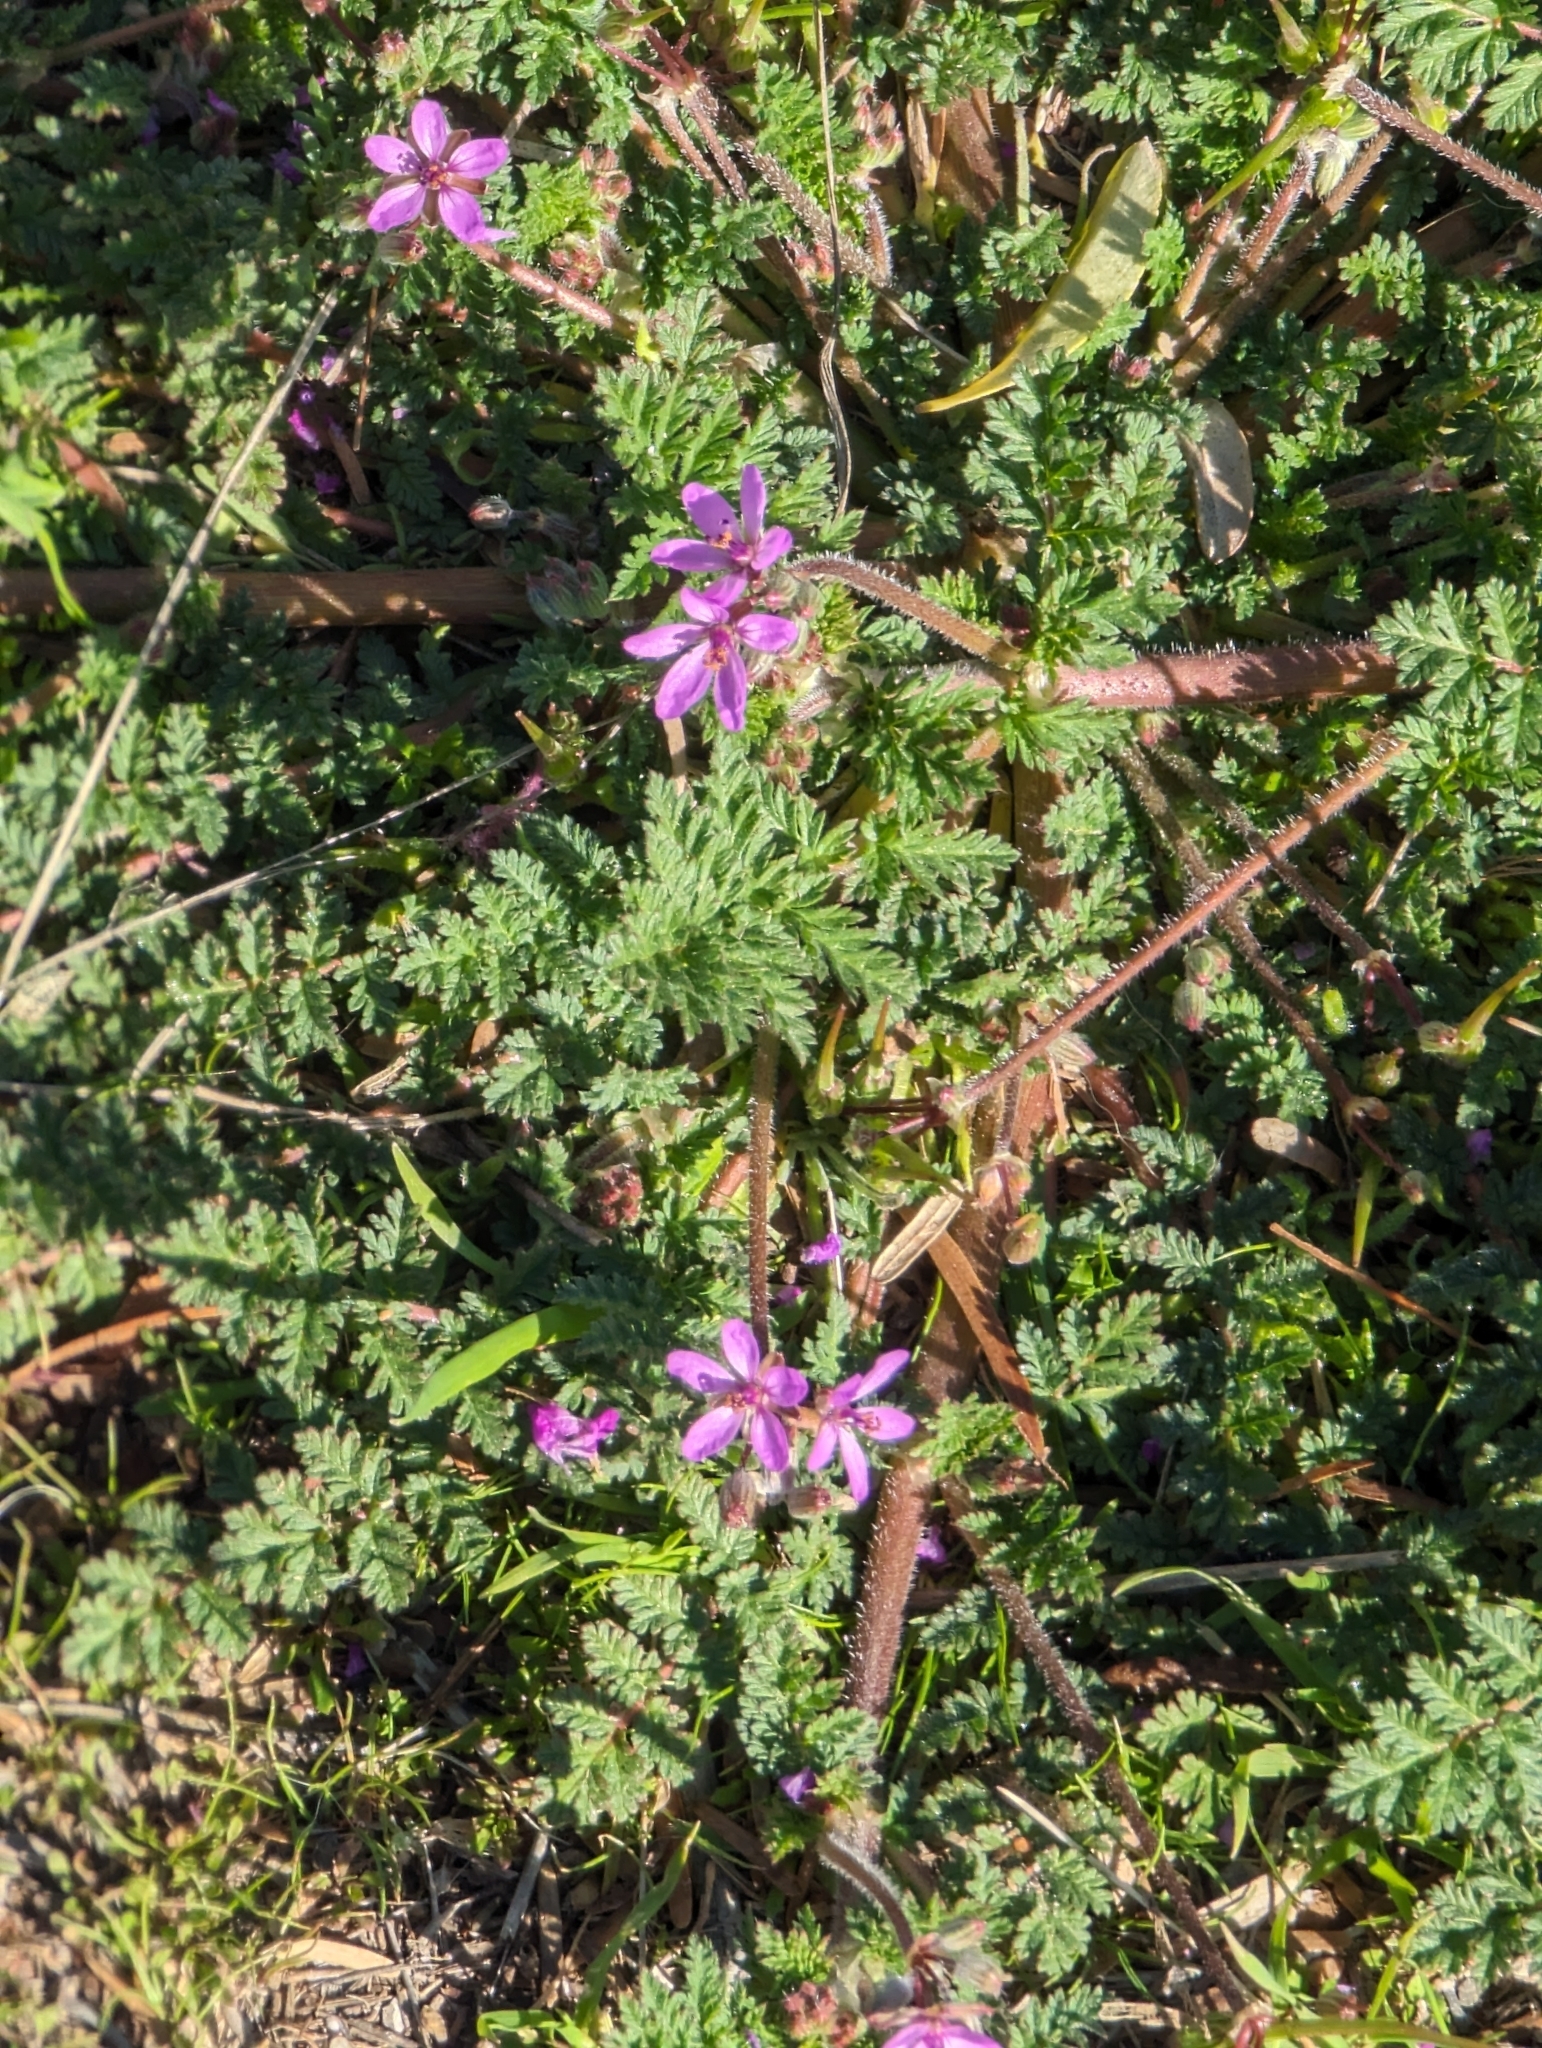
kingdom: Plantae
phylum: Tracheophyta
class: Magnoliopsida
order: Geraniales
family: Geraniaceae
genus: Erodium
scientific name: Erodium cicutarium
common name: Common stork's-bill
